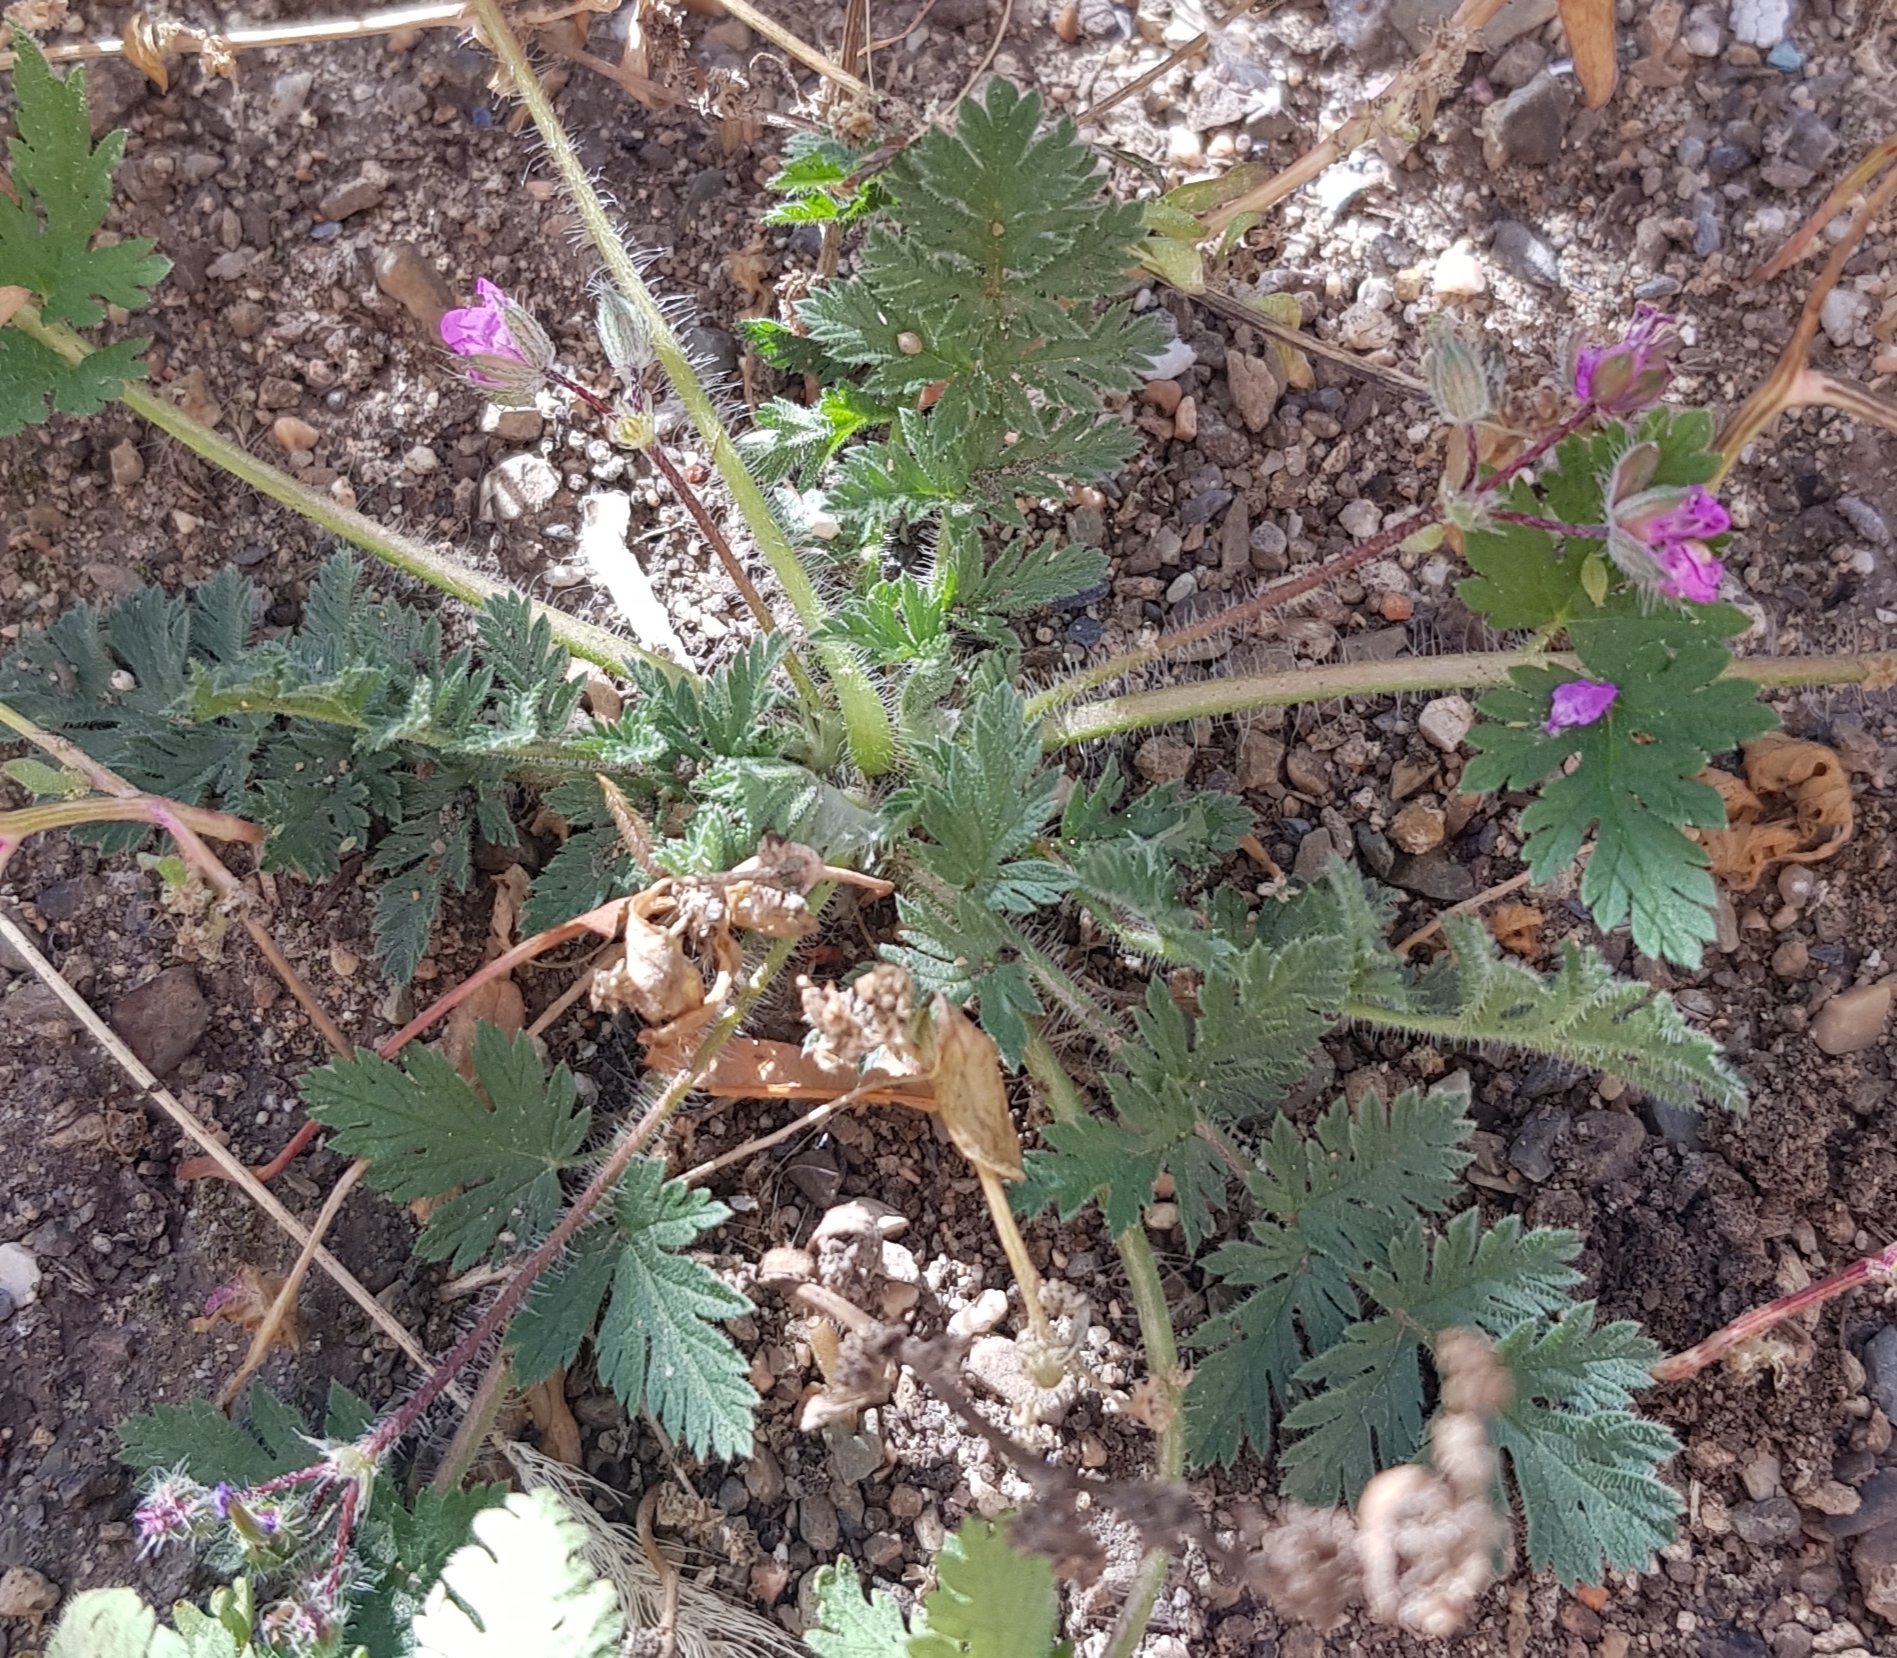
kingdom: Plantae
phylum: Tracheophyta
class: Magnoliopsida
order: Geraniales
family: Geraniaceae
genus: Erodium
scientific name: Erodium cicutarium
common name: Common stork's-bill
